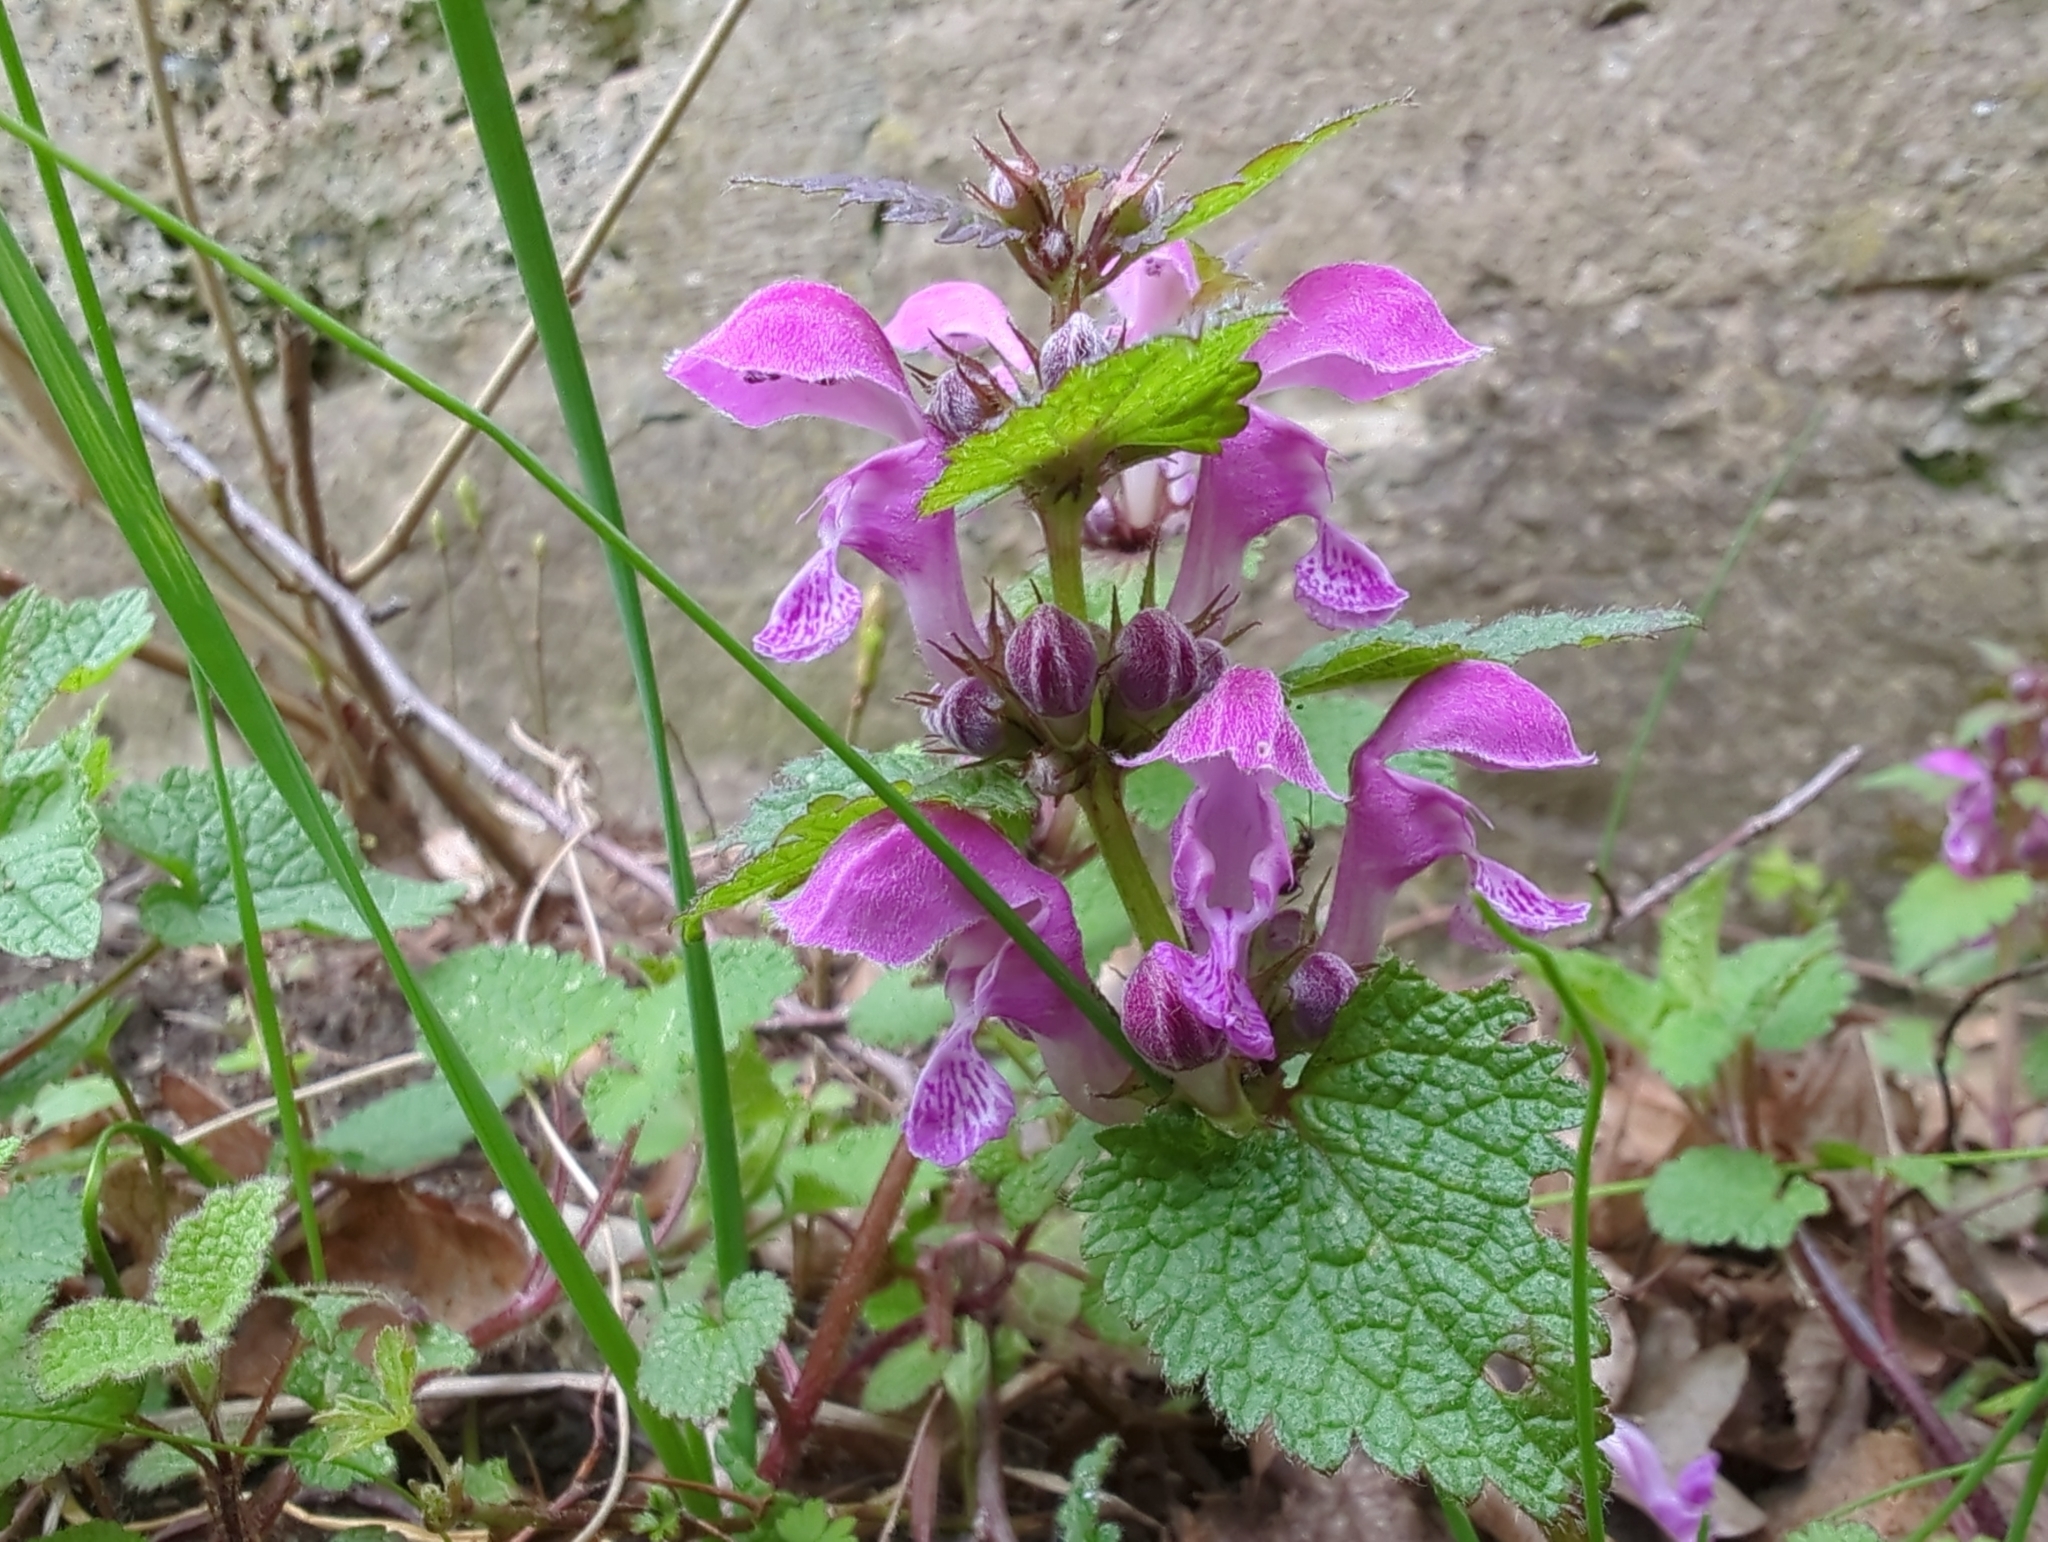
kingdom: Plantae
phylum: Tracheophyta
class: Magnoliopsida
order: Lamiales
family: Lamiaceae
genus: Lamium
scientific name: Lamium maculatum
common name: Spotted dead-nettle
